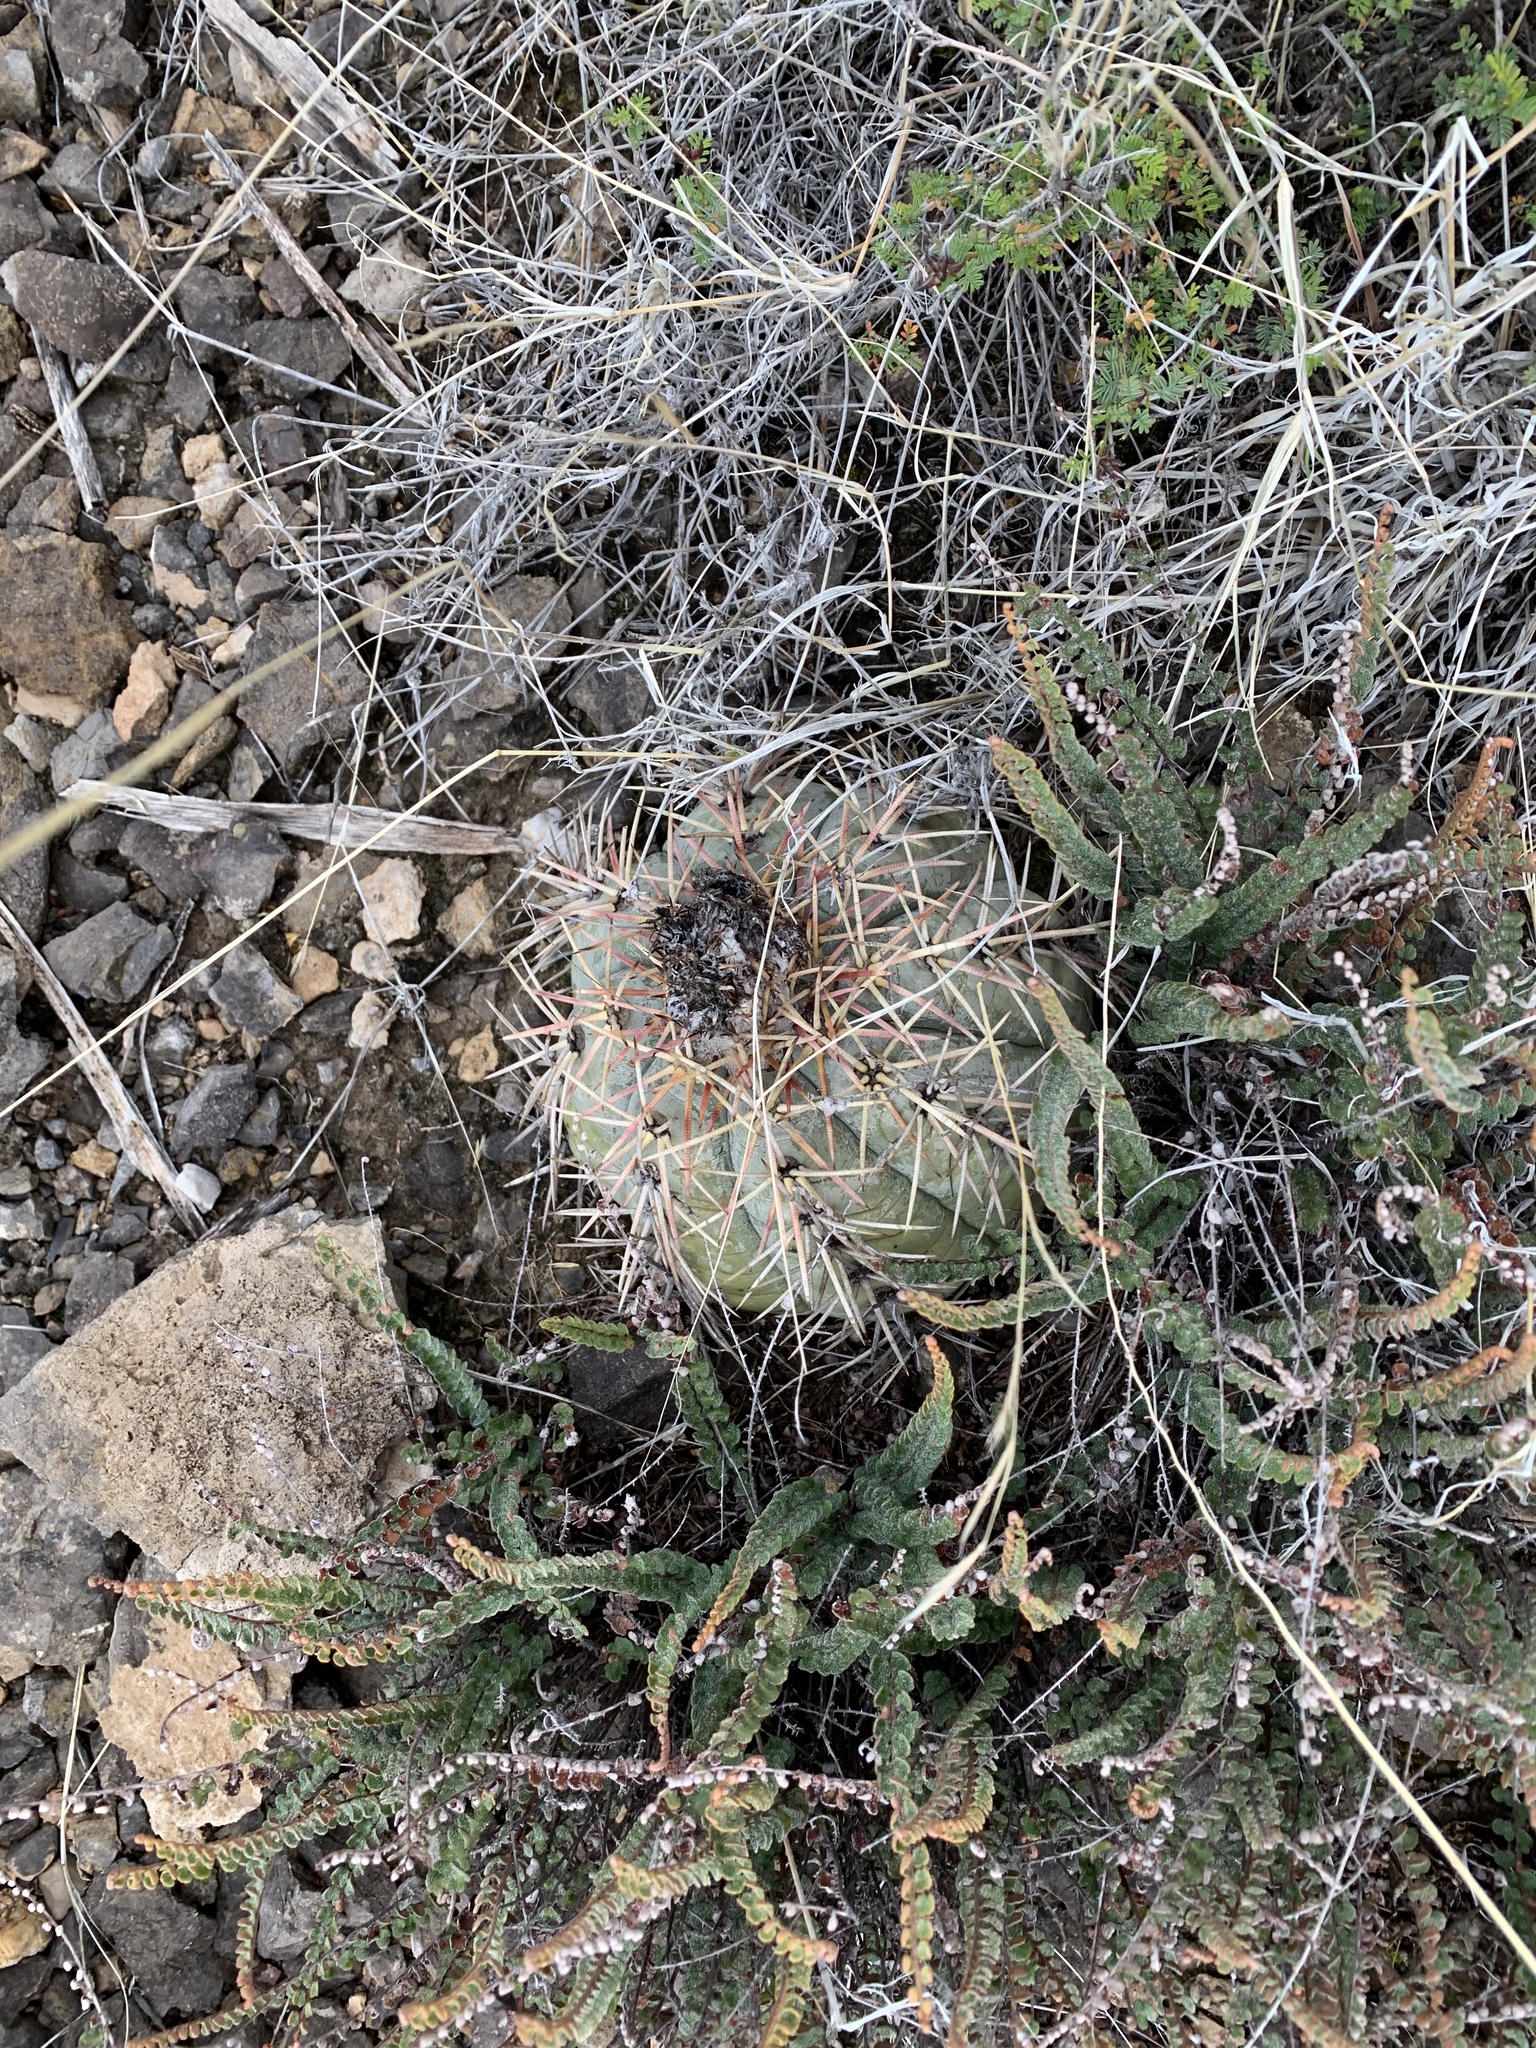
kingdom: Plantae
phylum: Tracheophyta
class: Magnoliopsida
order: Caryophyllales
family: Cactaceae
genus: Echinocactus
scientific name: Echinocactus horizonthalonius
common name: Devilshead
